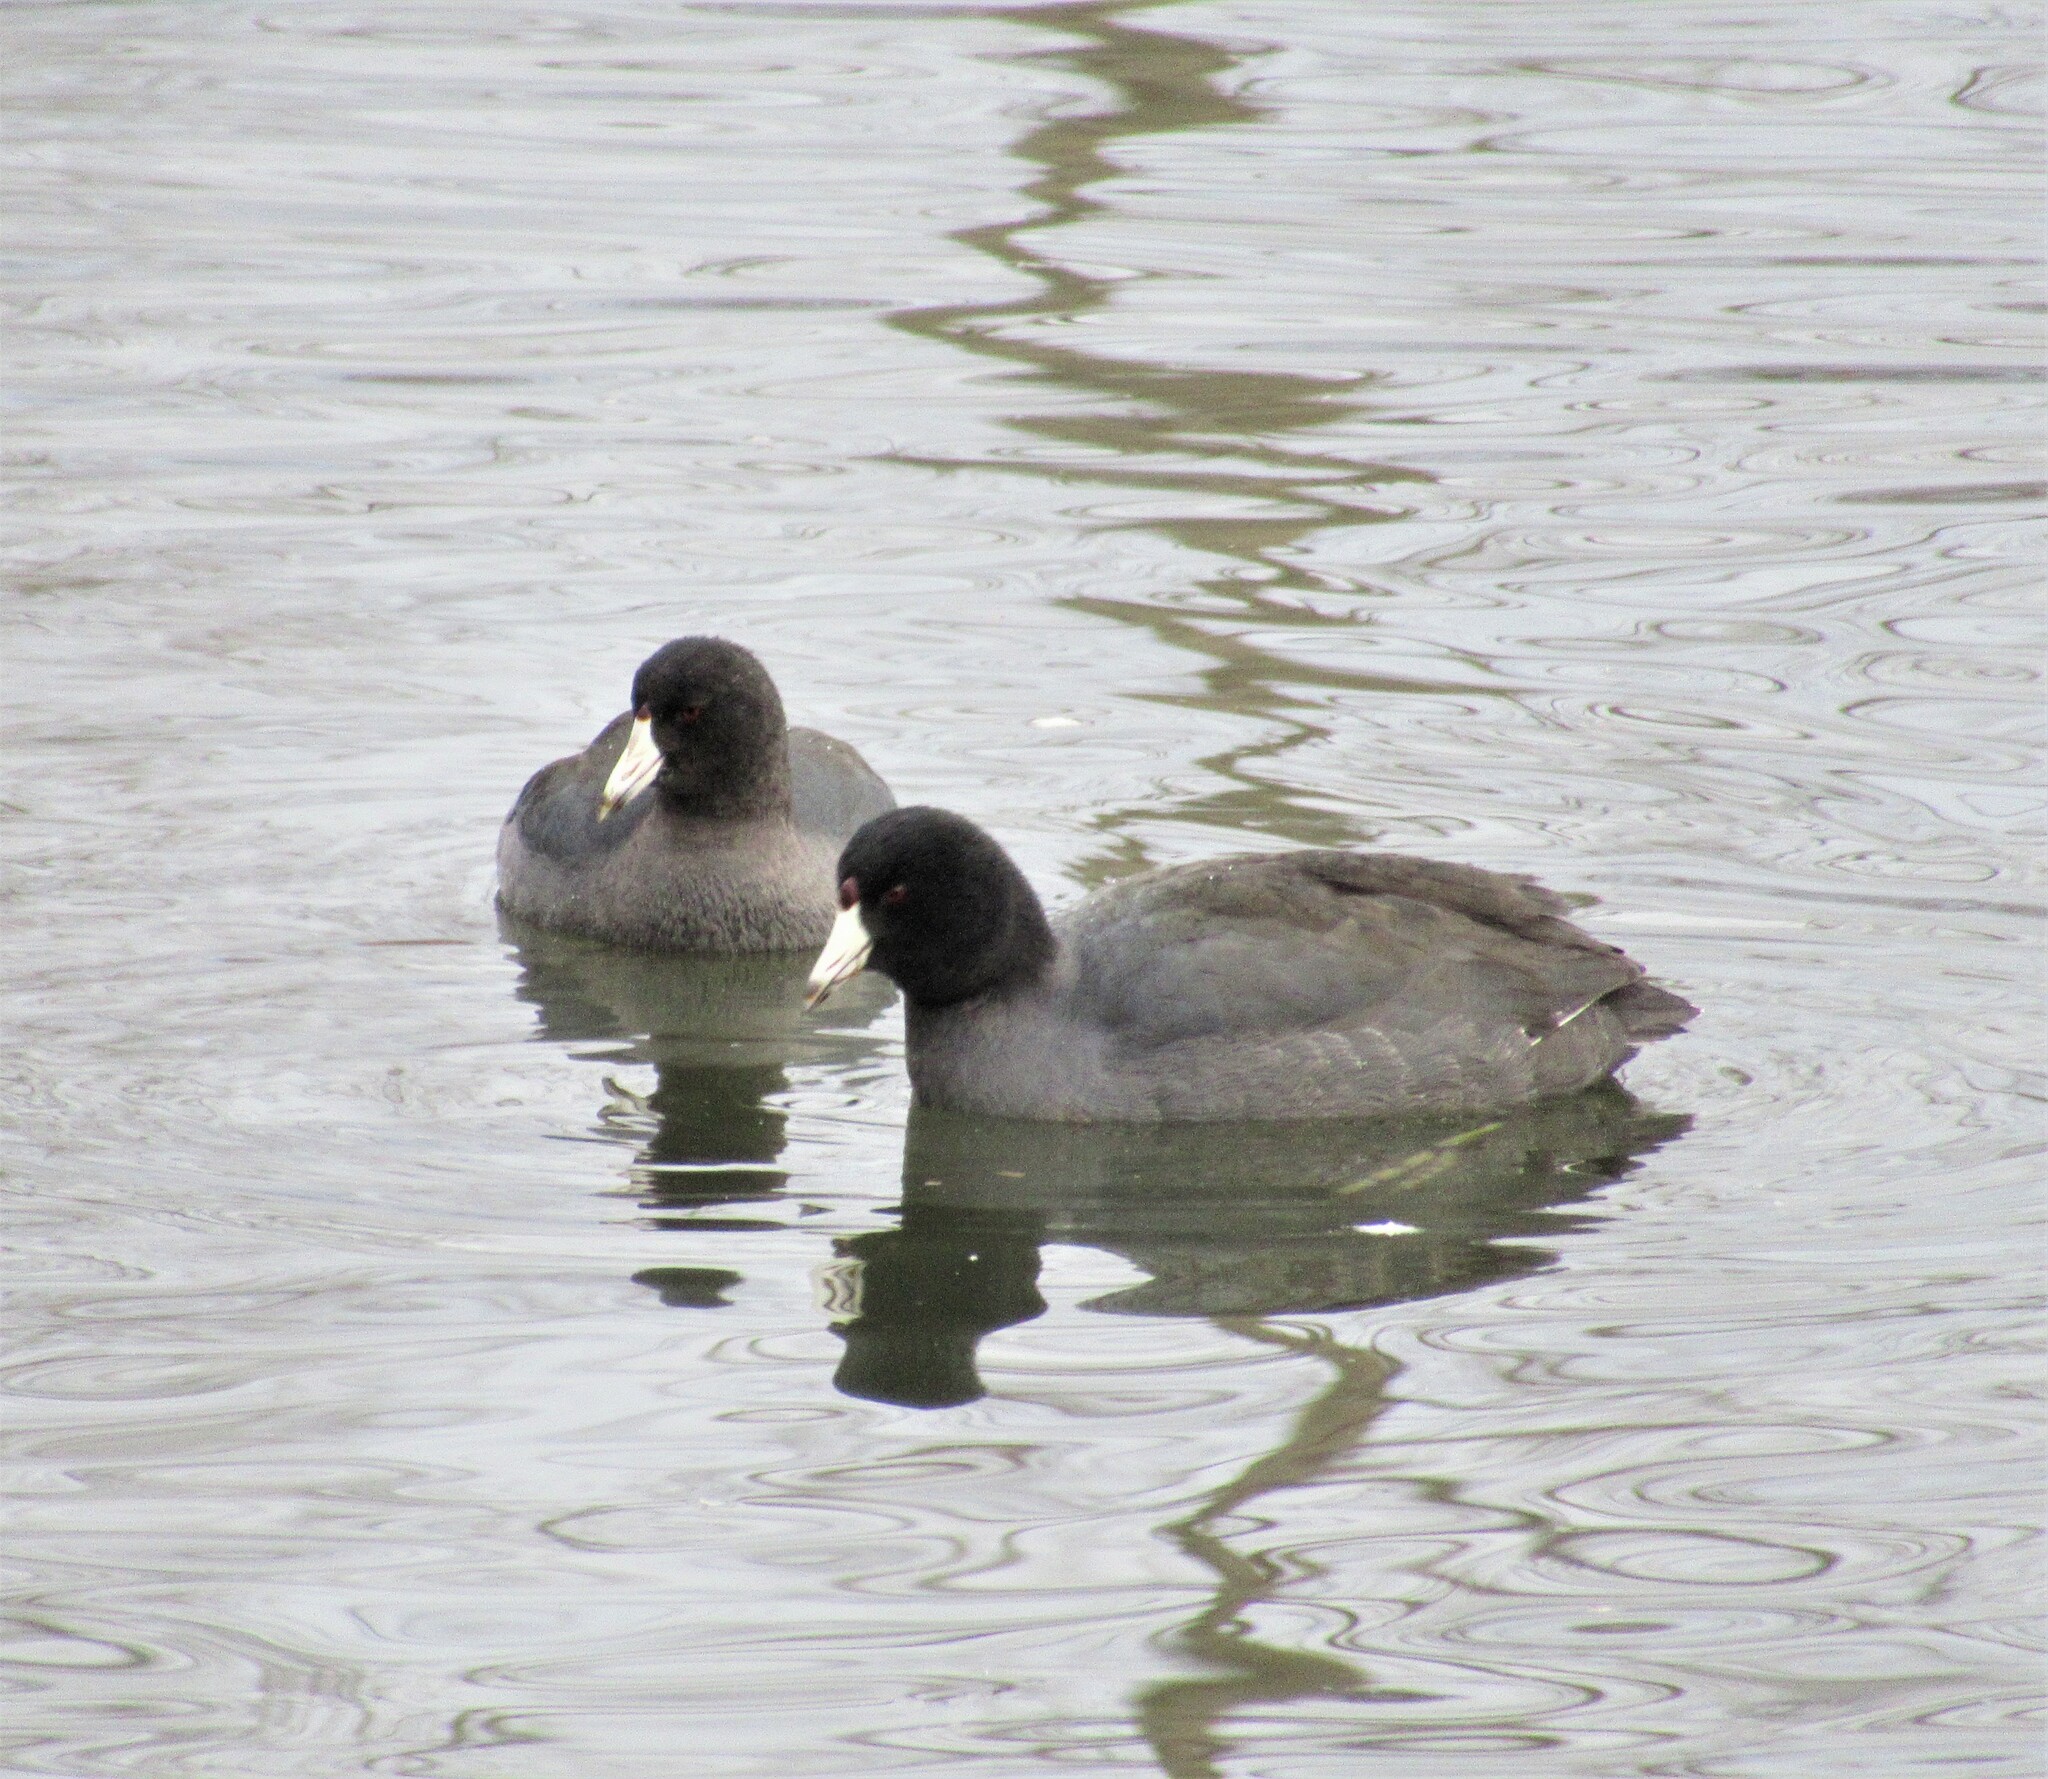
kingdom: Animalia
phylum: Chordata
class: Aves
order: Gruiformes
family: Rallidae
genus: Fulica
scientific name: Fulica americana
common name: American coot
